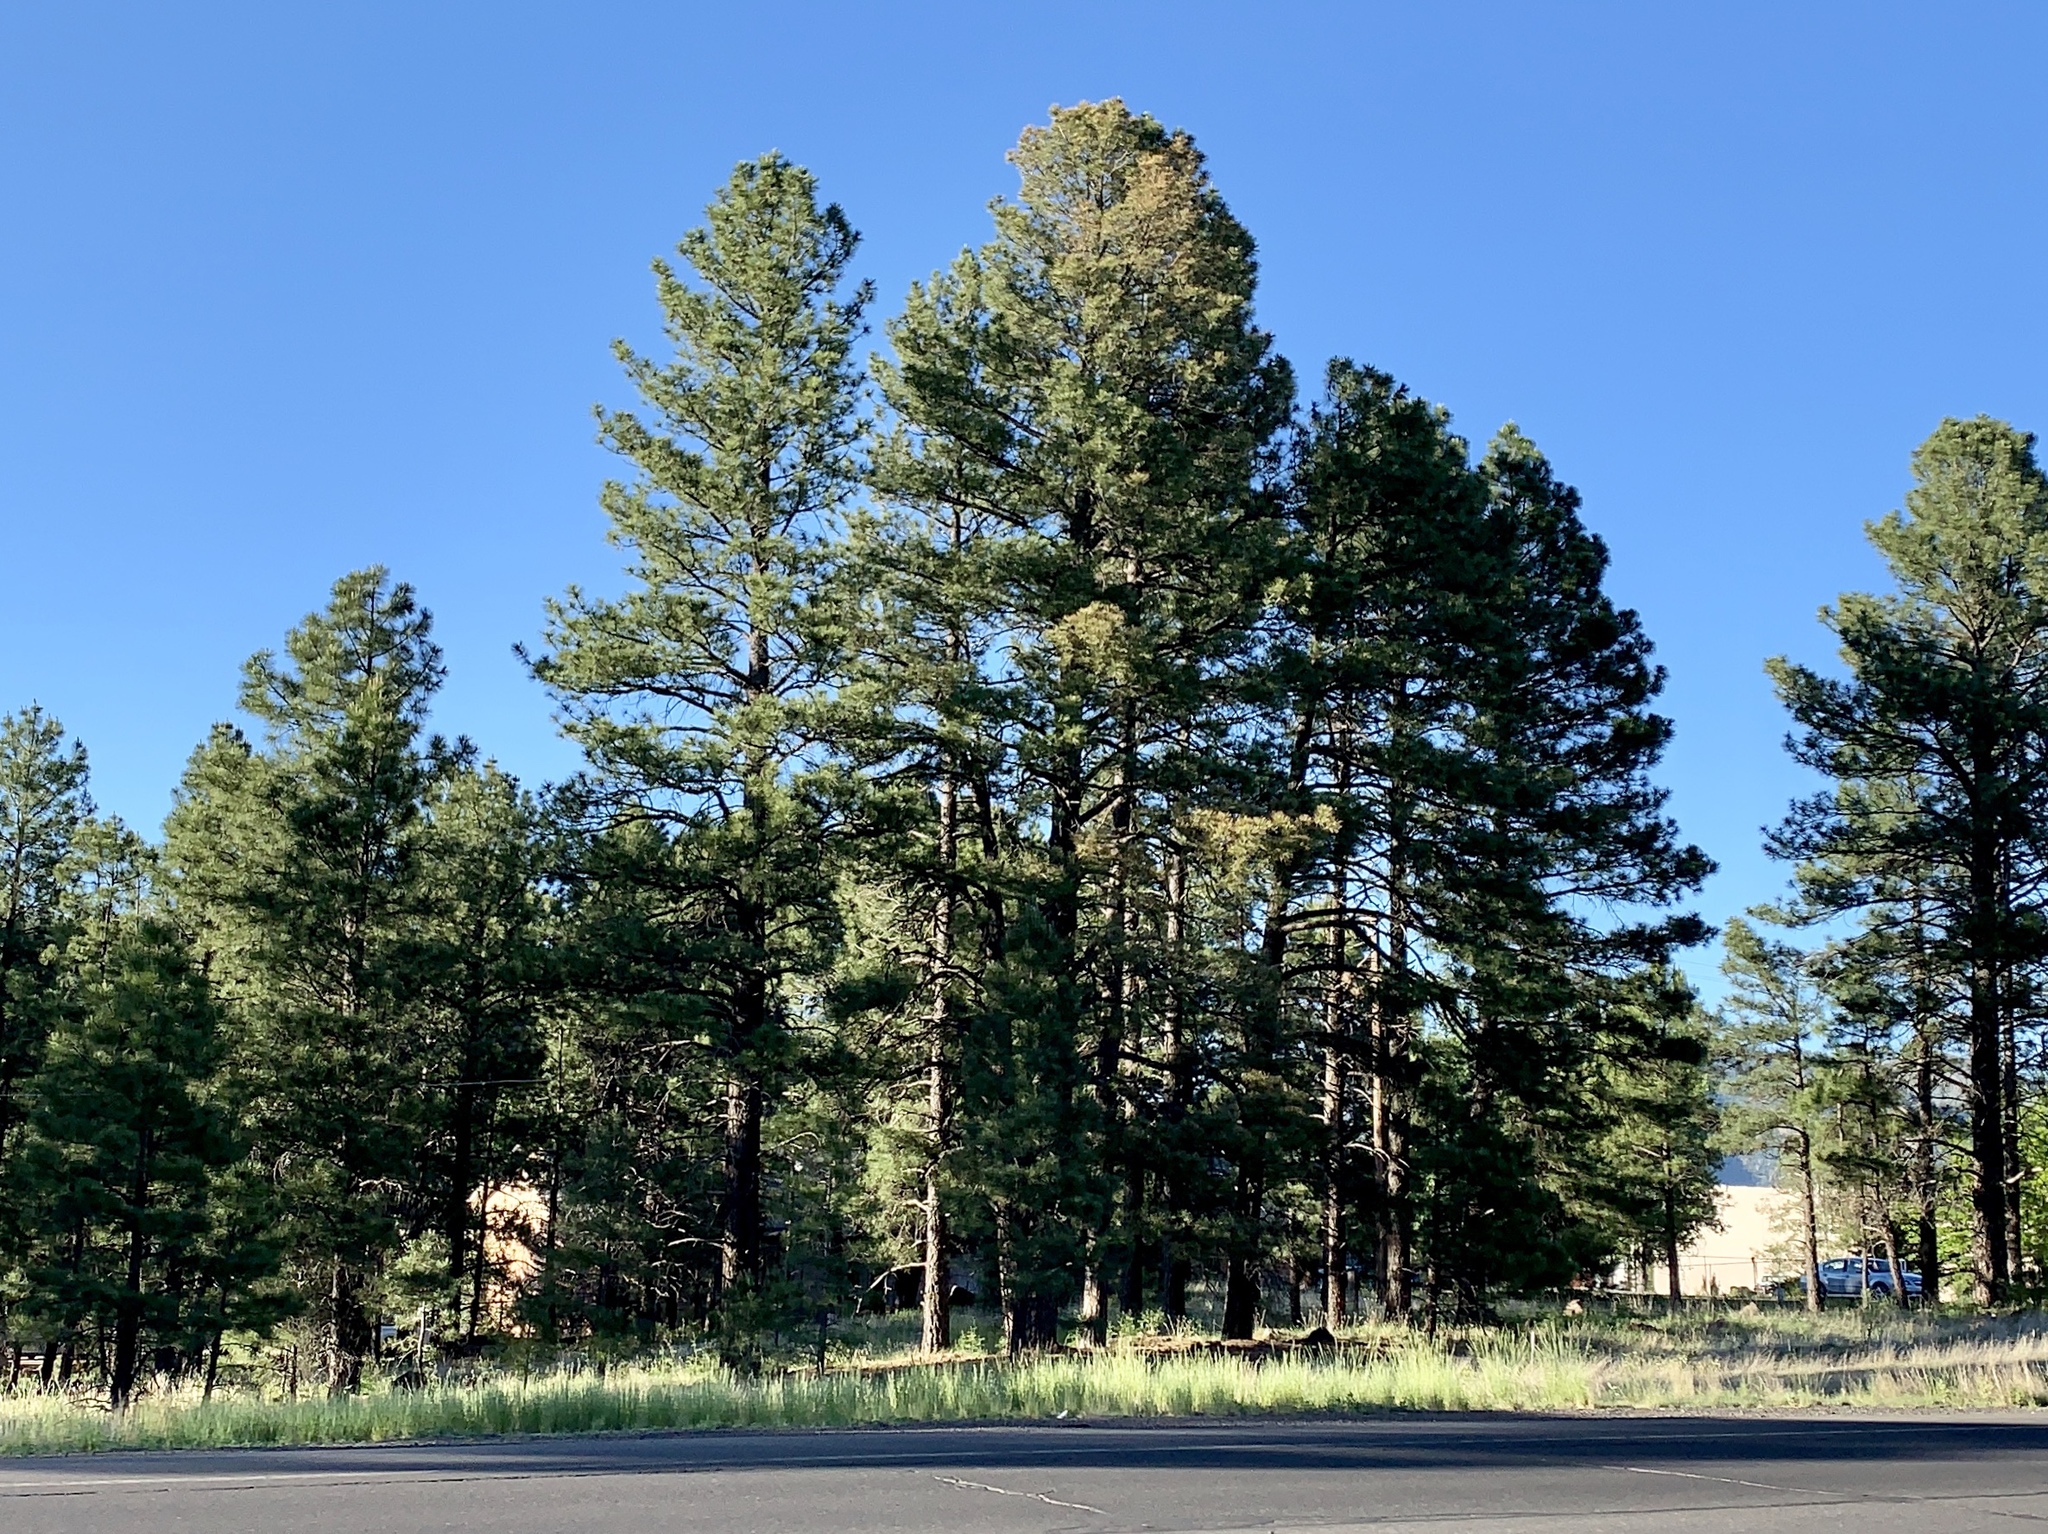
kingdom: Plantae
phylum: Tracheophyta
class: Pinopsida
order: Pinales
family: Pinaceae
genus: Pinus
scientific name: Pinus ponderosa
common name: Western yellow-pine
